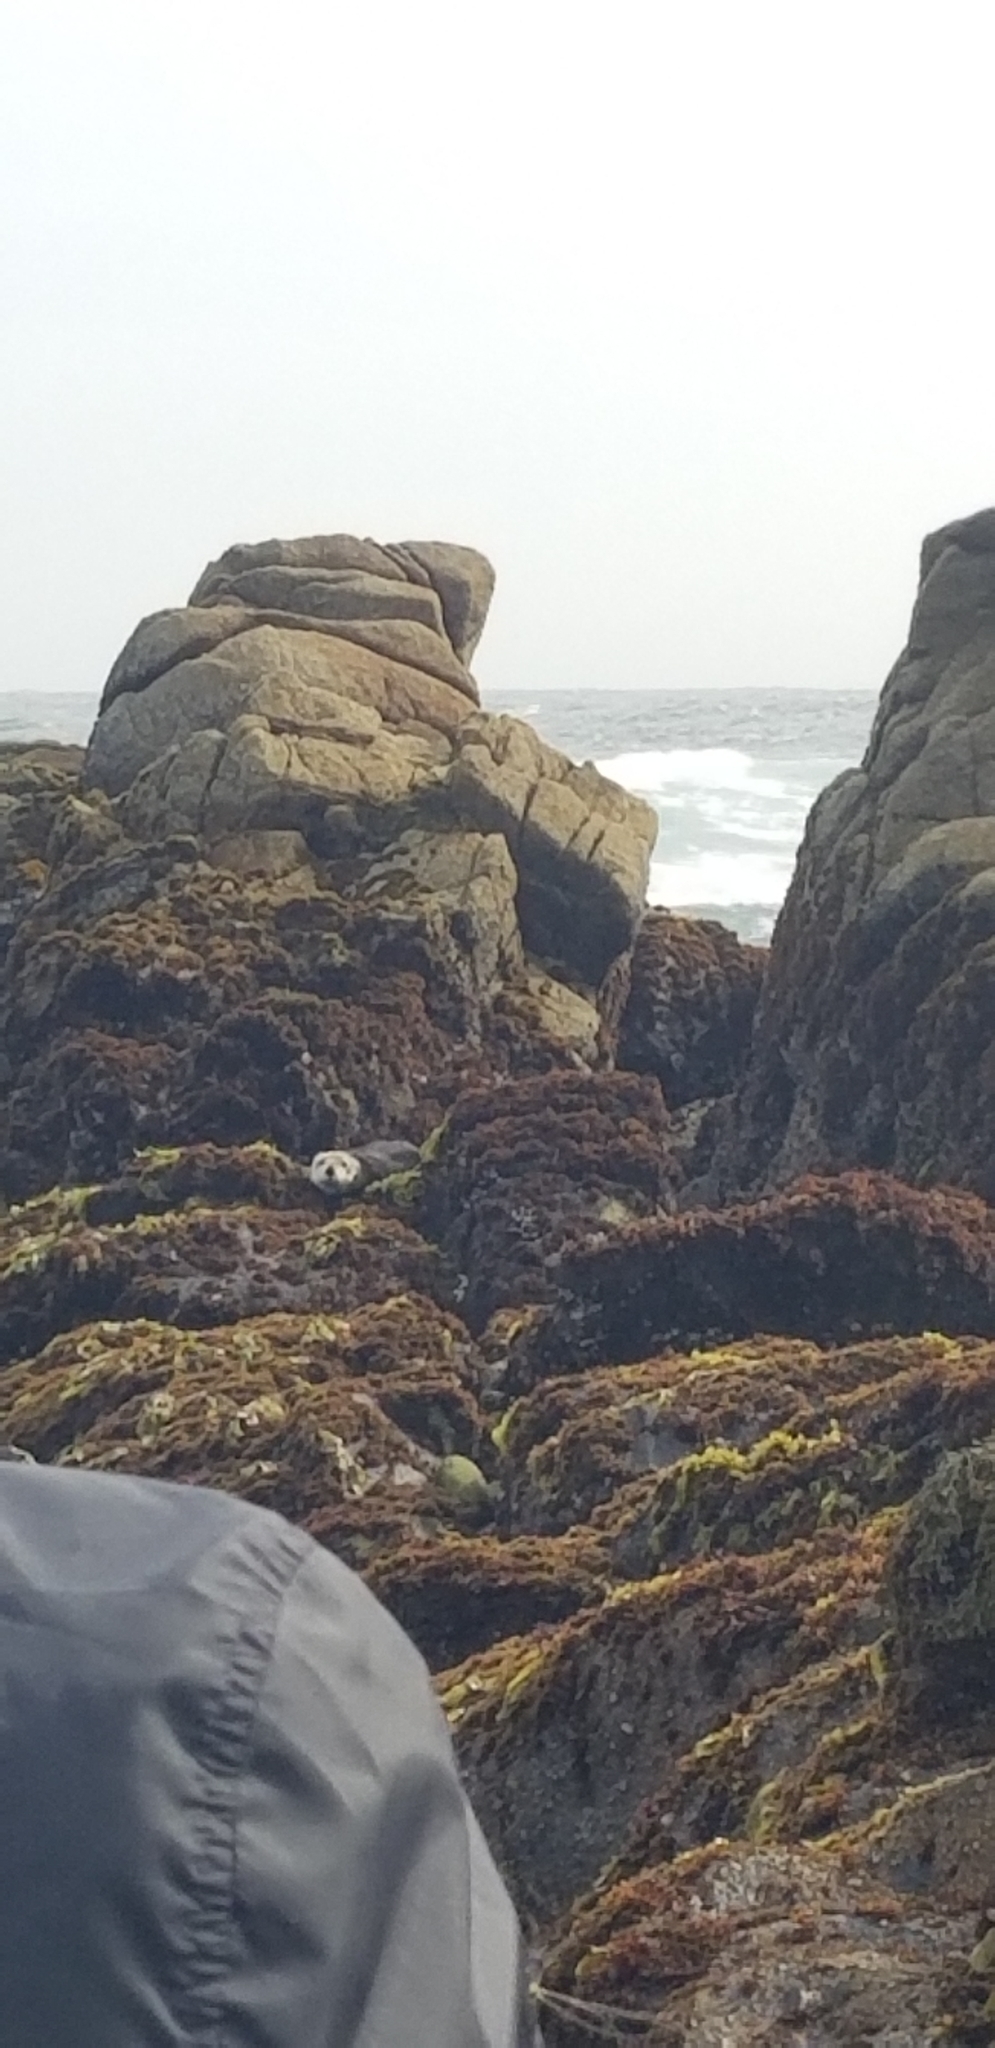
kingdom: Animalia
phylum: Chordata
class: Mammalia
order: Carnivora
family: Mustelidae
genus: Enhydra
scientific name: Enhydra lutris
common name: Sea otter
